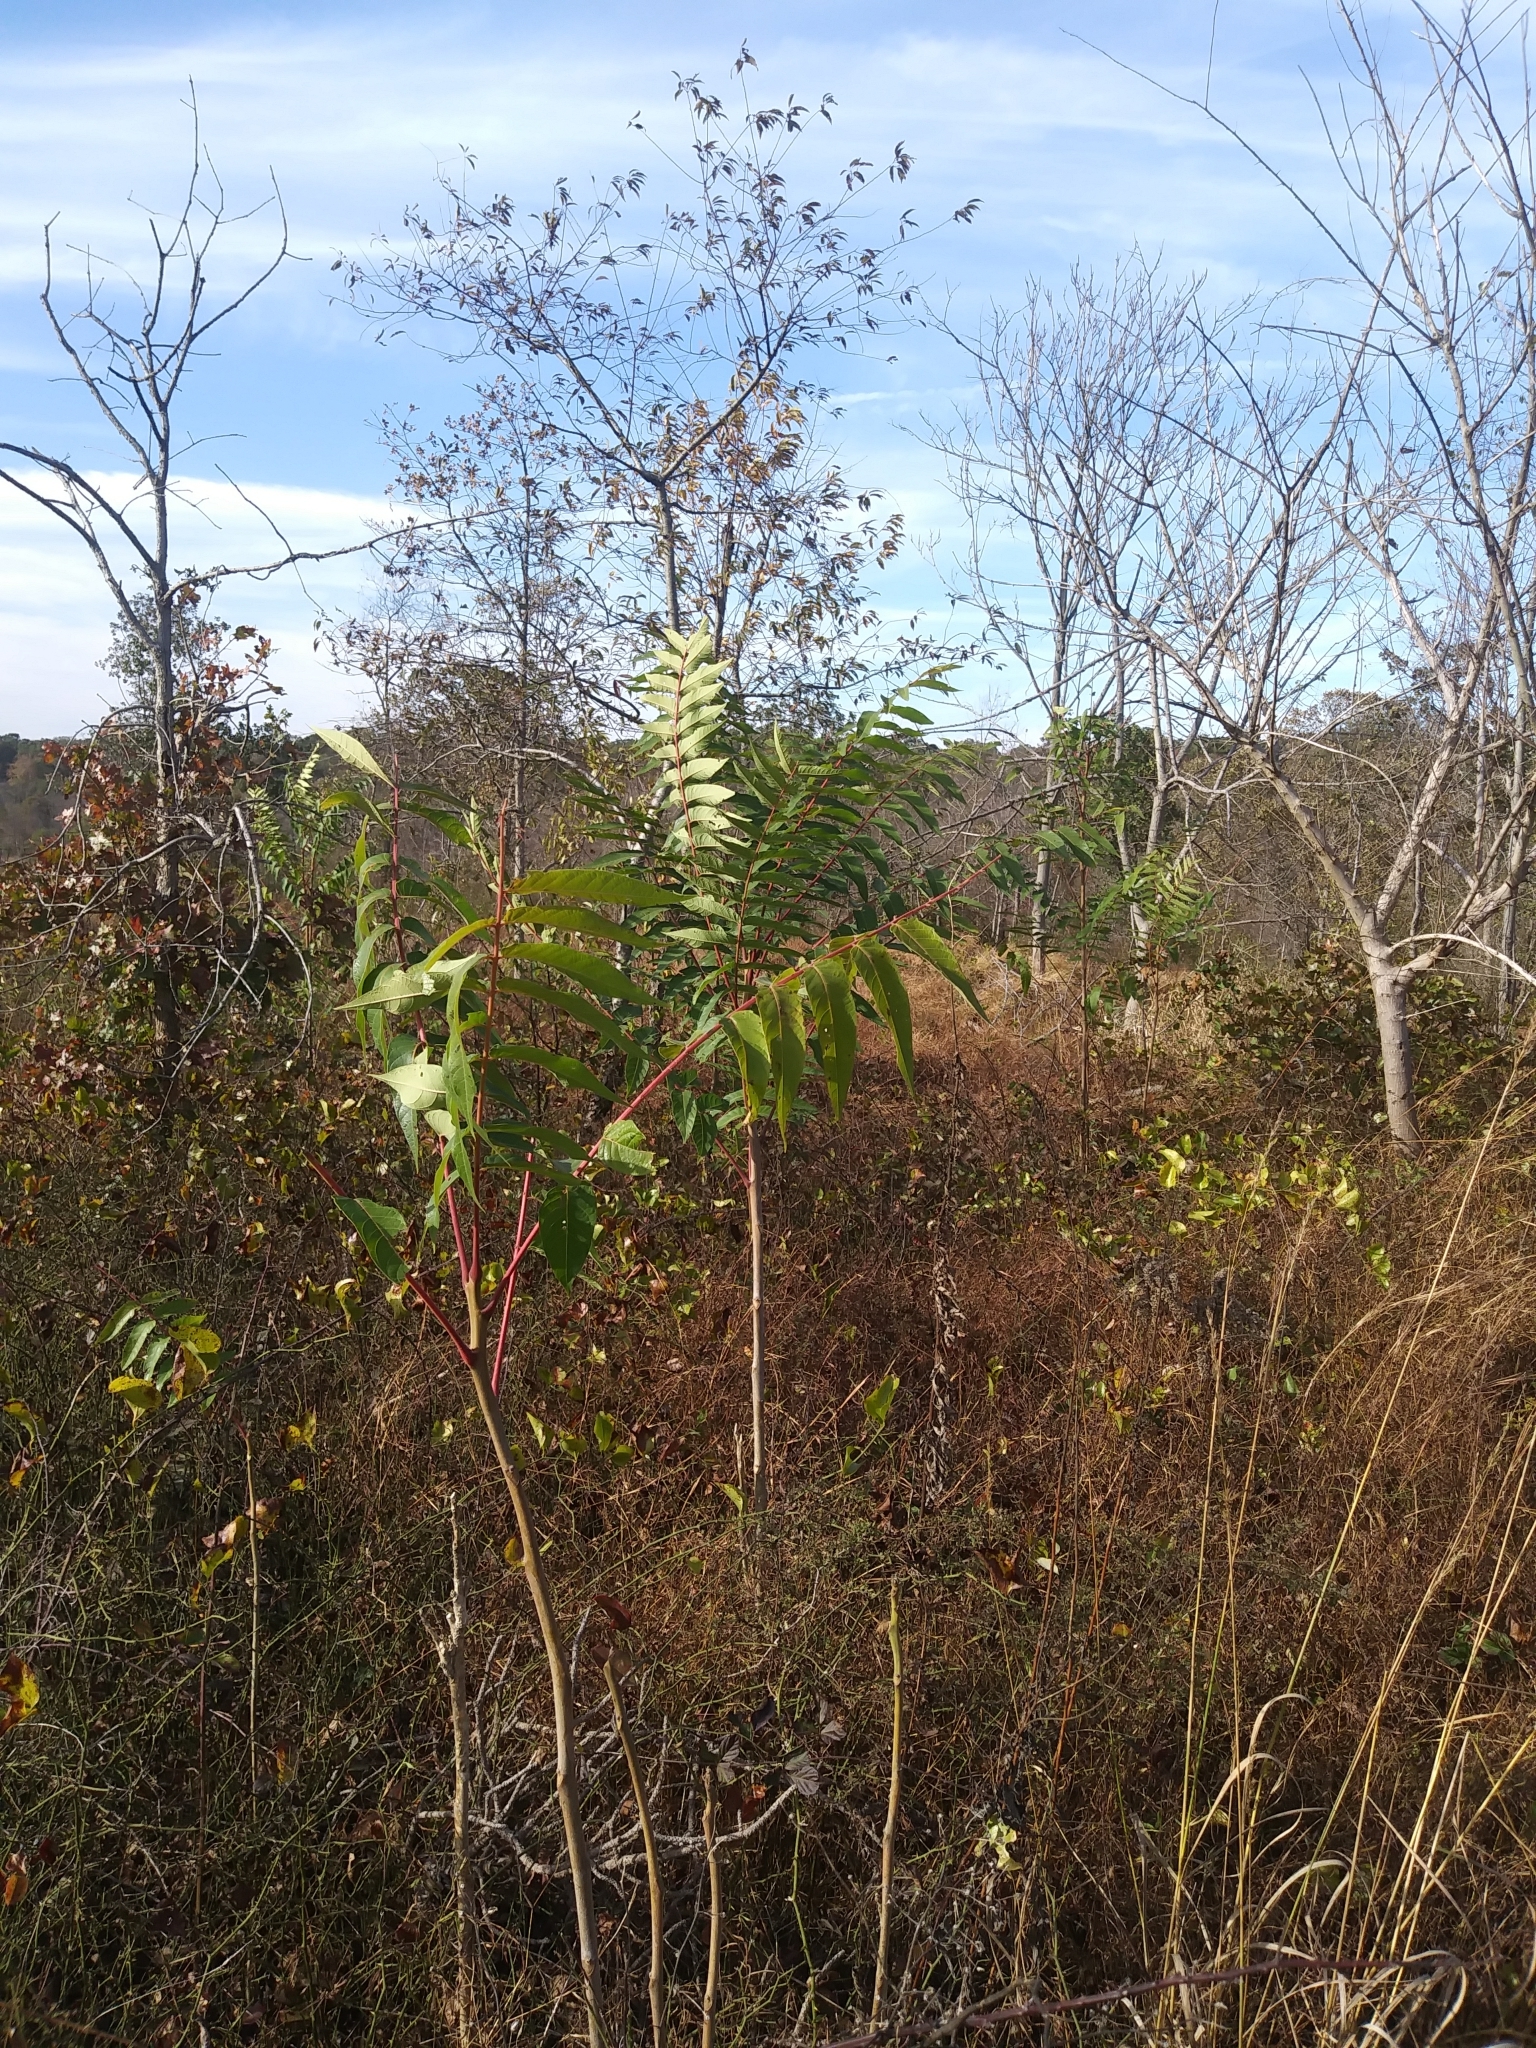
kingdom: Plantae
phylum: Tracheophyta
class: Magnoliopsida
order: Sapindales
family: Simaroubaceae
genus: Ailanthus
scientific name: Ailanthus altissima
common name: Tree-of-heaven
